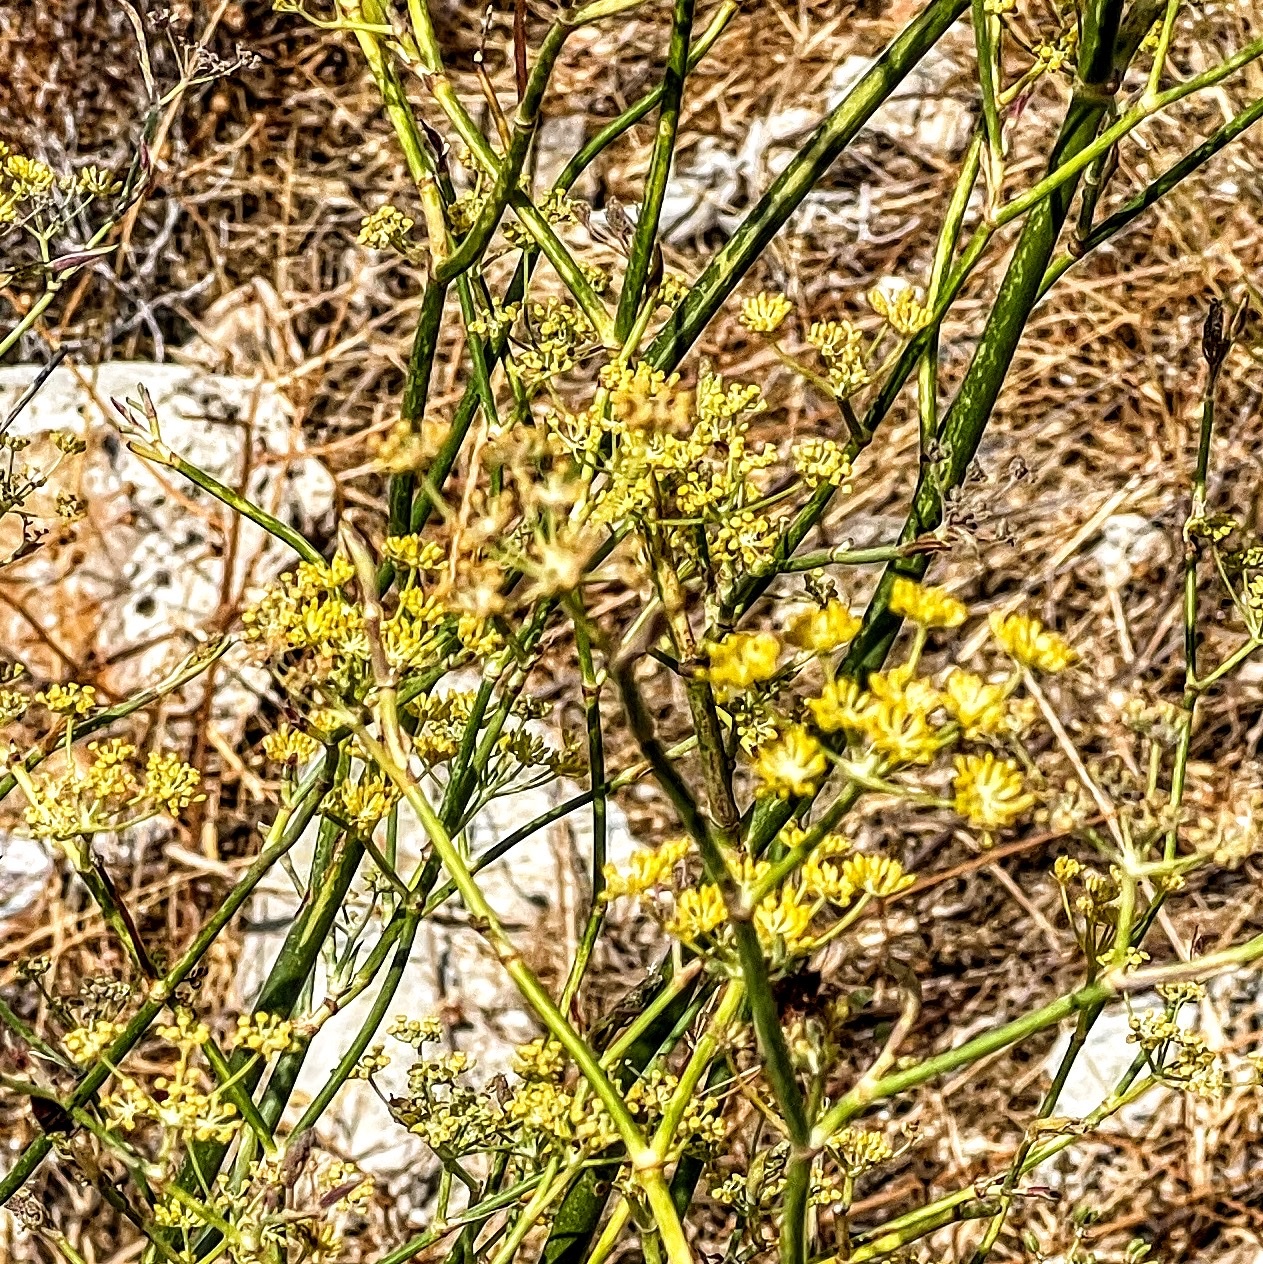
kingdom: Plantae
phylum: Tracheophyta
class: Magnoliopsida
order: Apiales
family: Apiaceae
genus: Foeniculum
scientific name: Foeniculum vulgare
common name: Fennel
